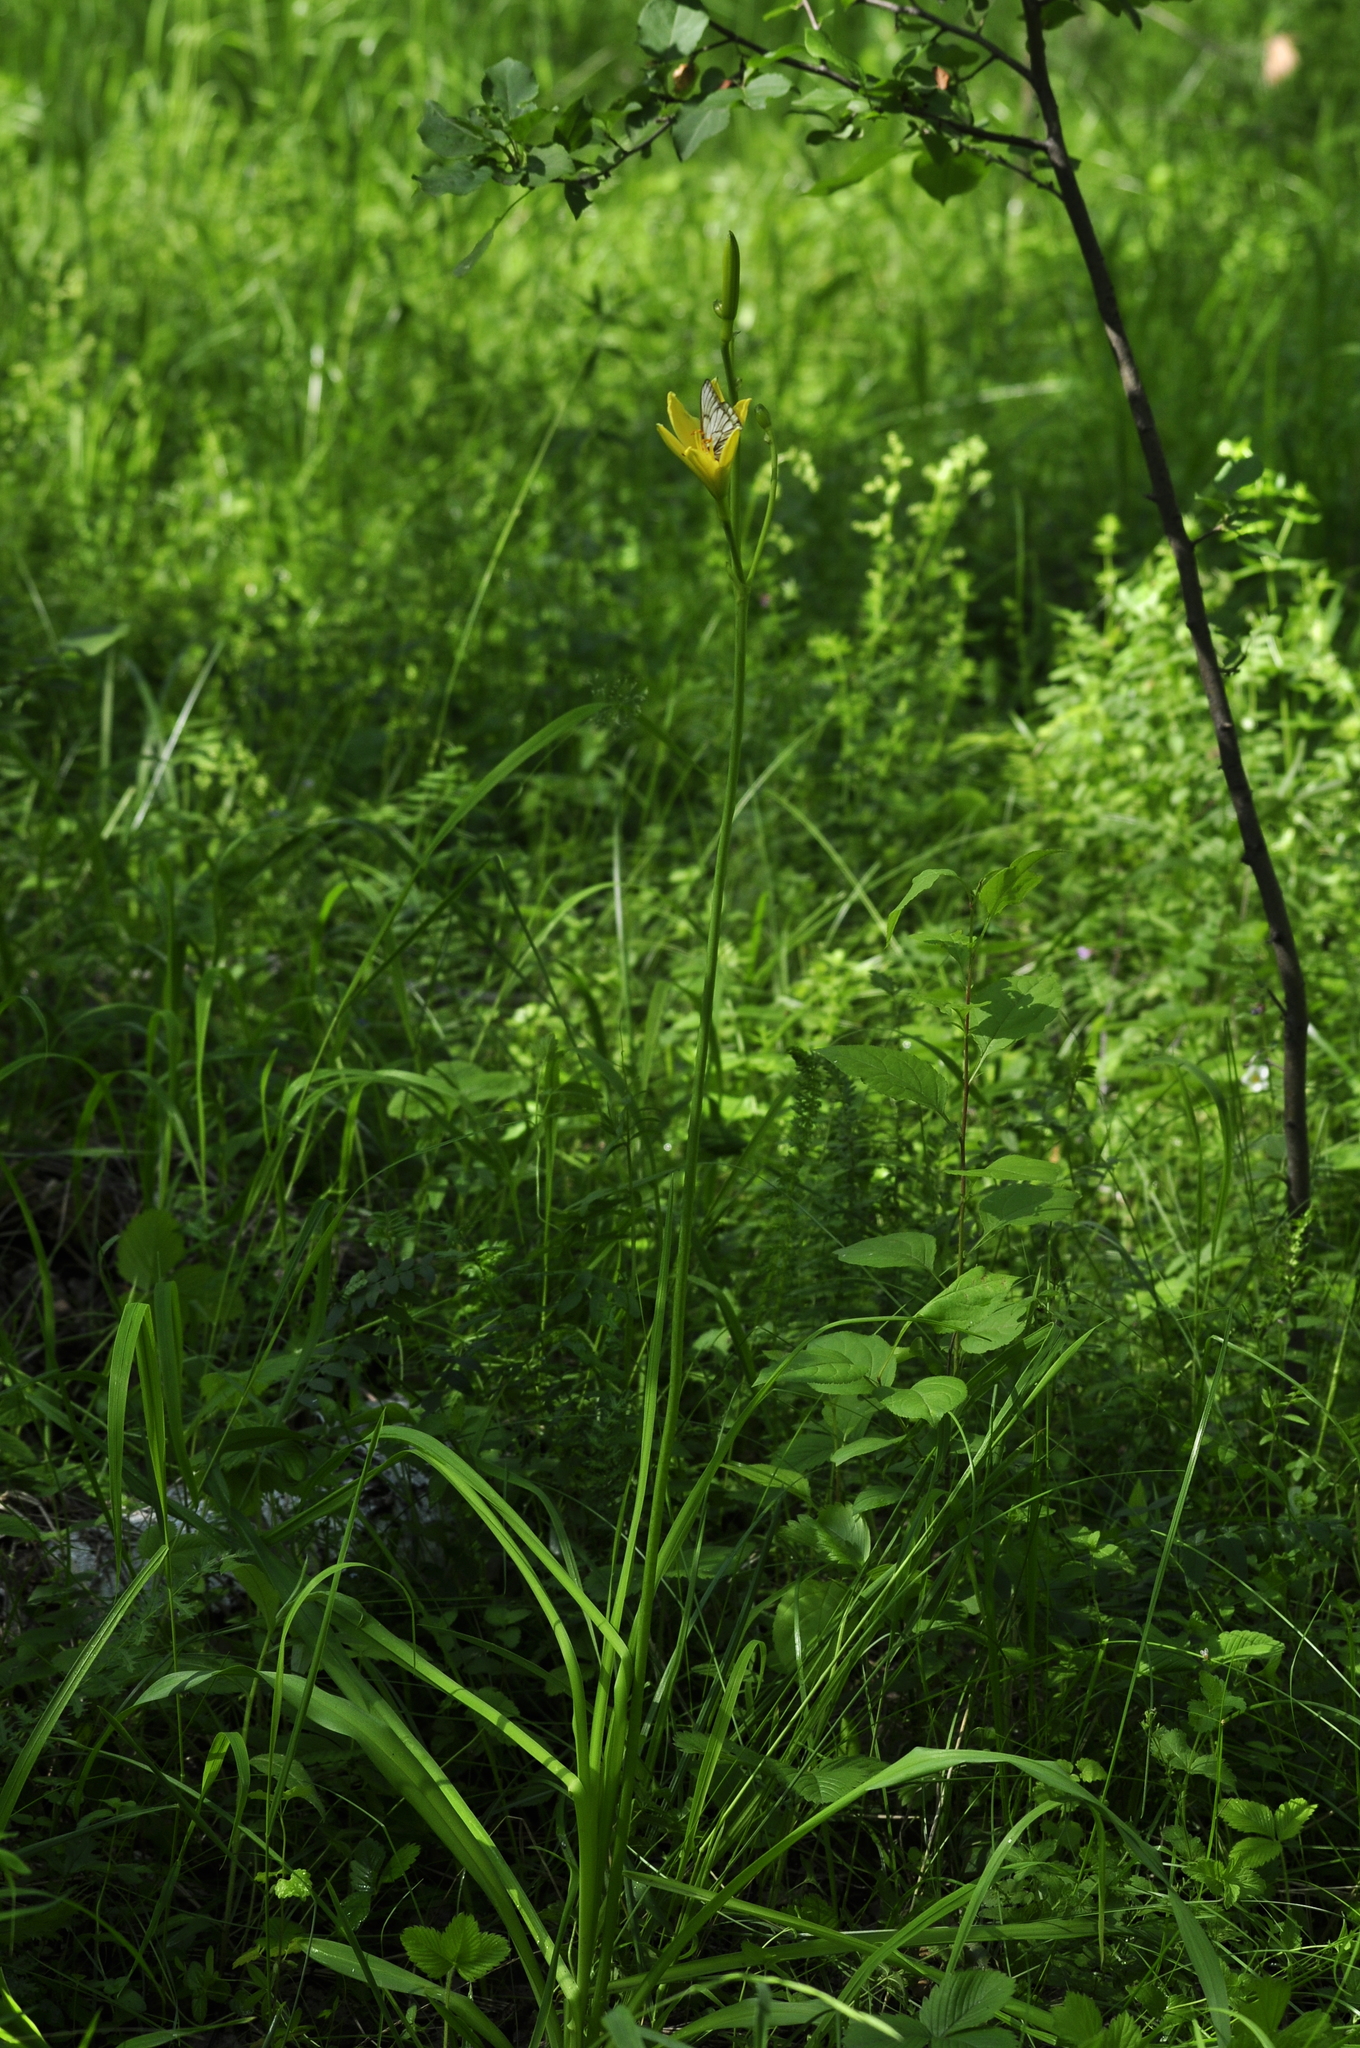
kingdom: Plantae
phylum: Tracheophyta
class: Liliopsida
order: Asparagales
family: Asphodelaceae
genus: Hemerocallis
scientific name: Hemerocallis minor
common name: Small daylily
